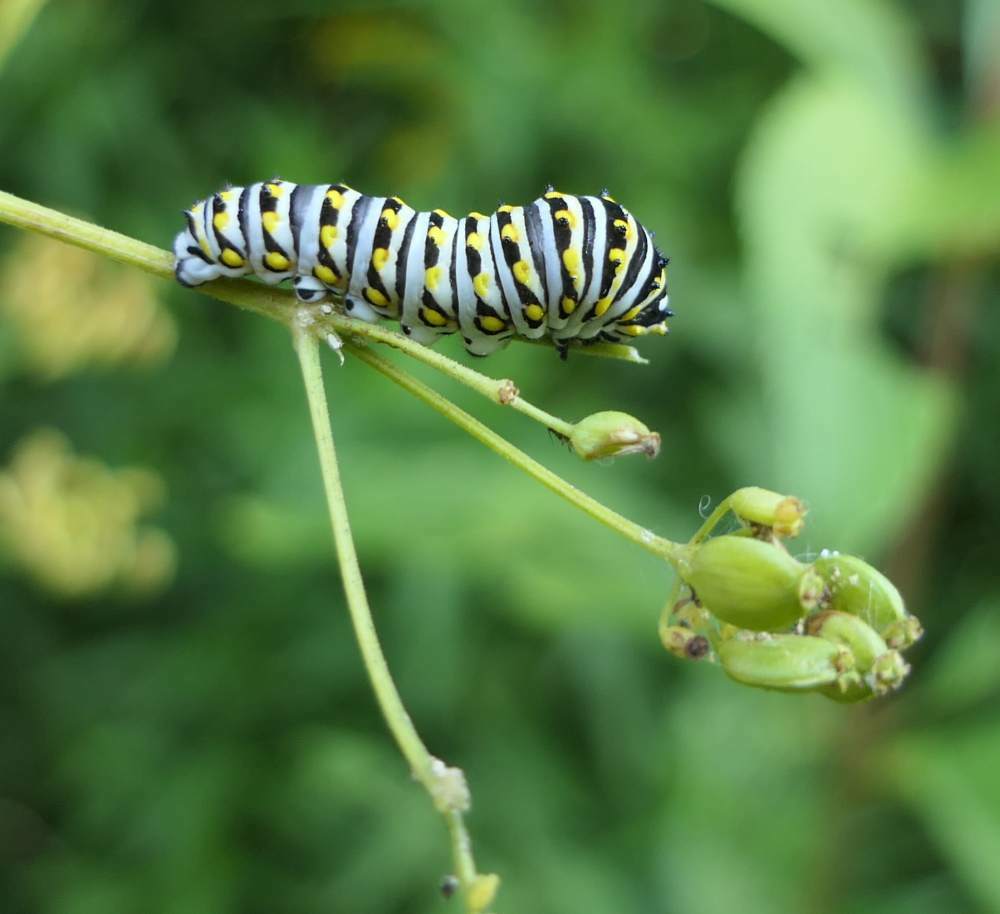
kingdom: Animalia
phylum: Arthropoda
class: Insecta
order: Lepidoptera
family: Papilionidae
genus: Papilio
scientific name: Papilio polyxenes
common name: Black swallowtail
